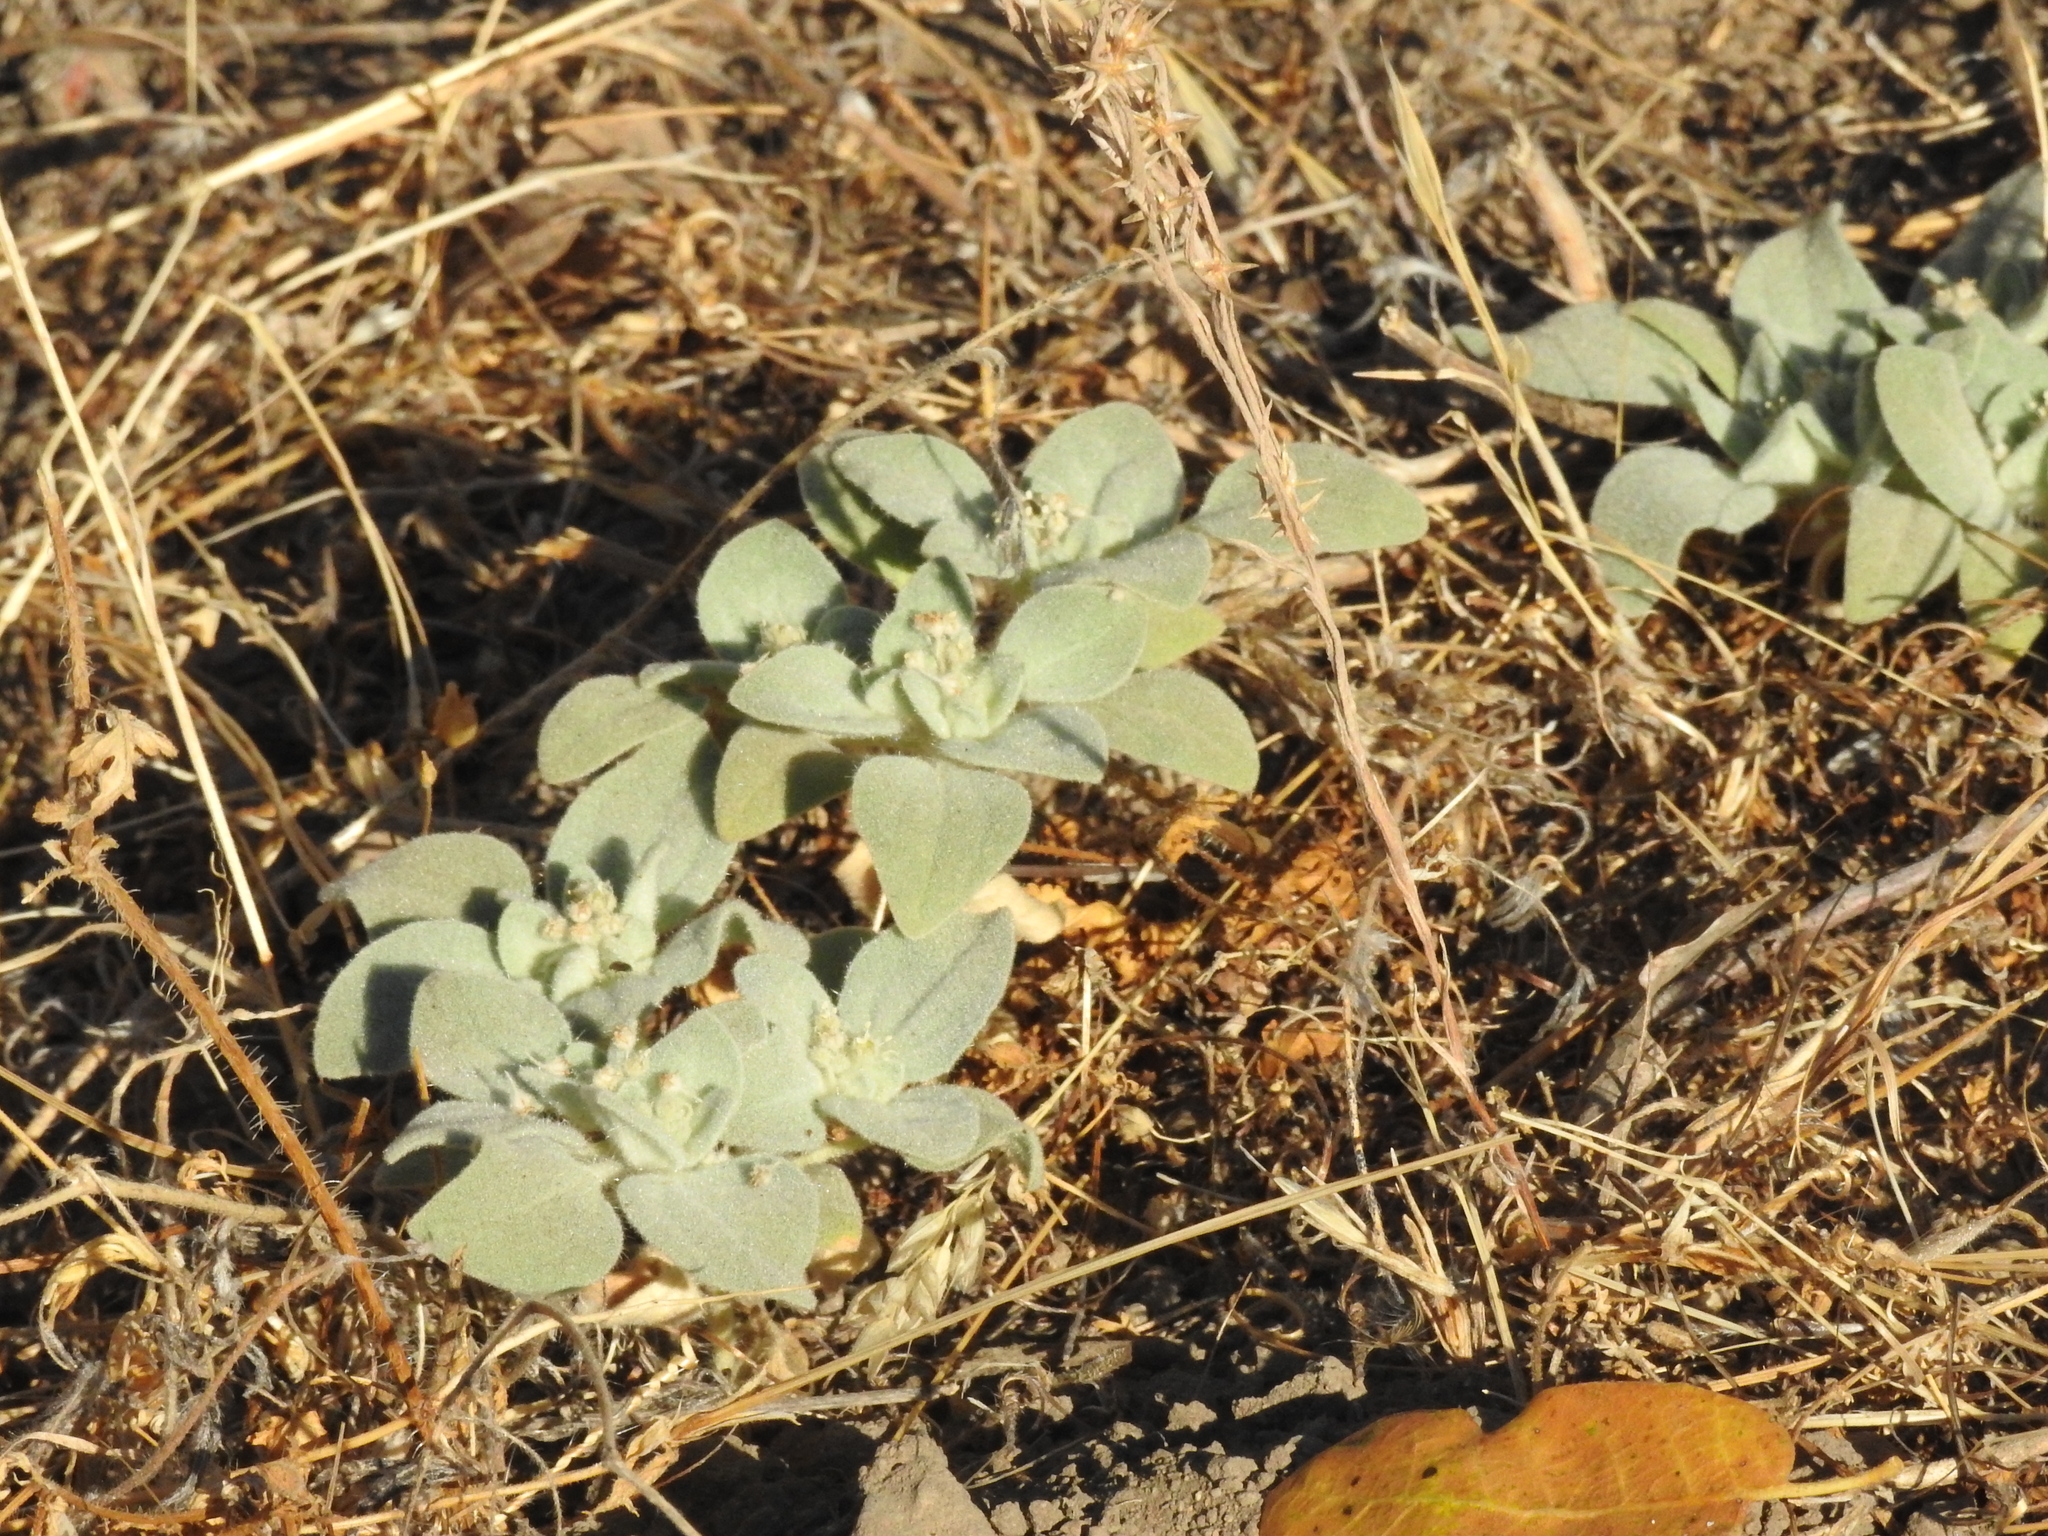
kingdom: Plantae
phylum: Tracheophyta
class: Magnoliopsida
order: Malpighiales
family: Euphorbiaceae
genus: Croton
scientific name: Croton setiger
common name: Dove weed
